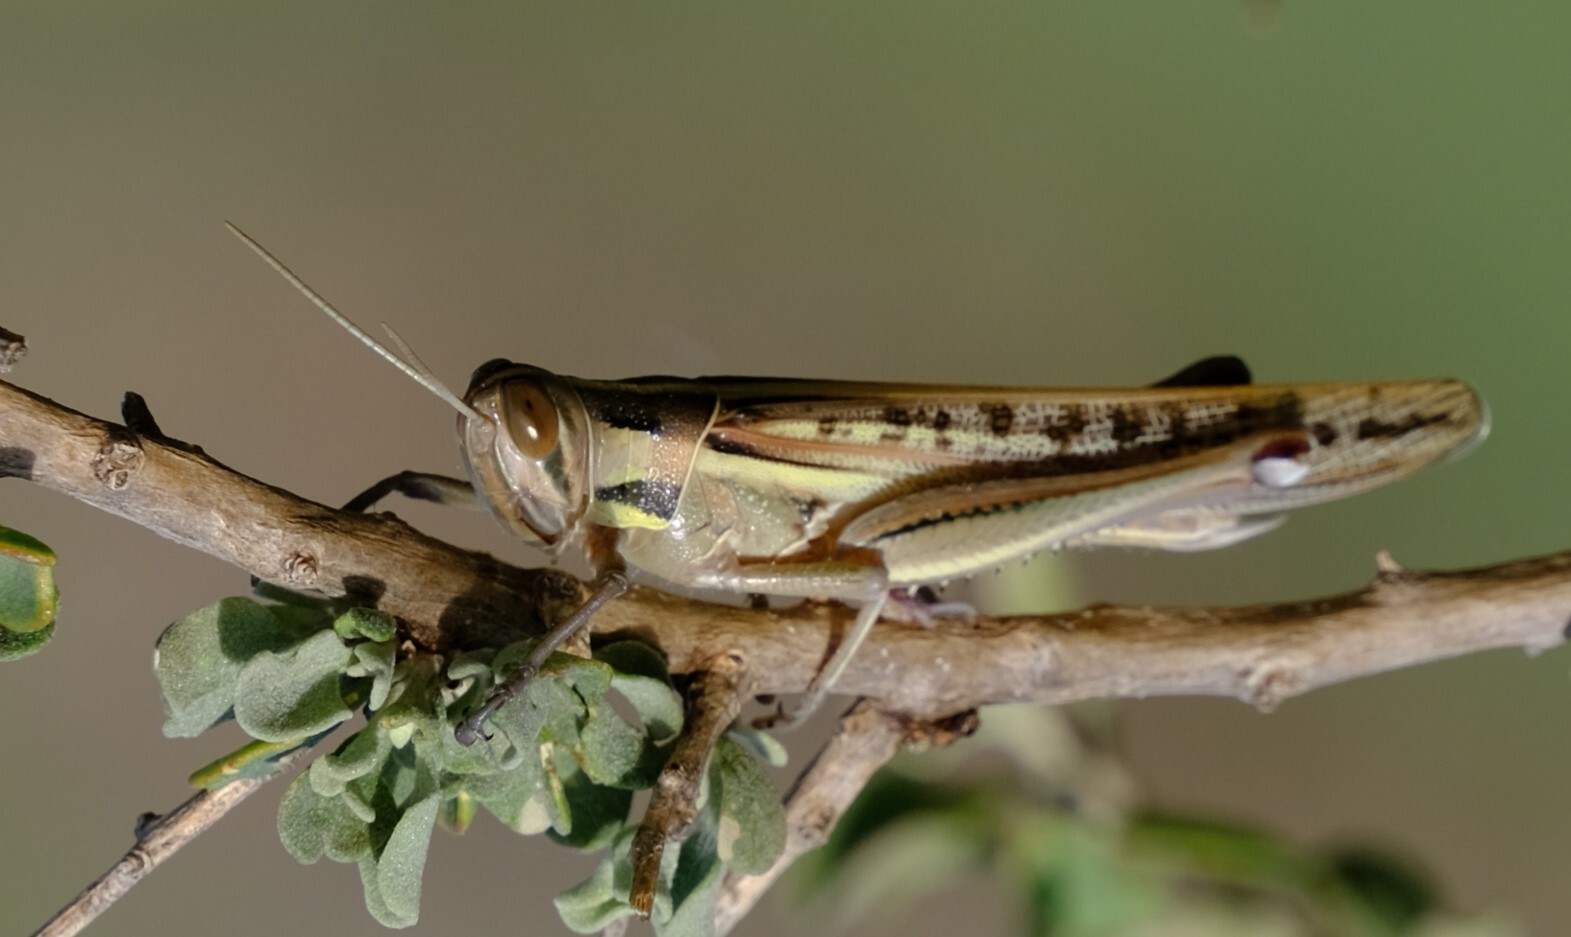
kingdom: Animalia
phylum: Arthropoda
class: Insecta
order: Orthoptera
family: Acrididae
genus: Austracris
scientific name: Austracris guttulosa
